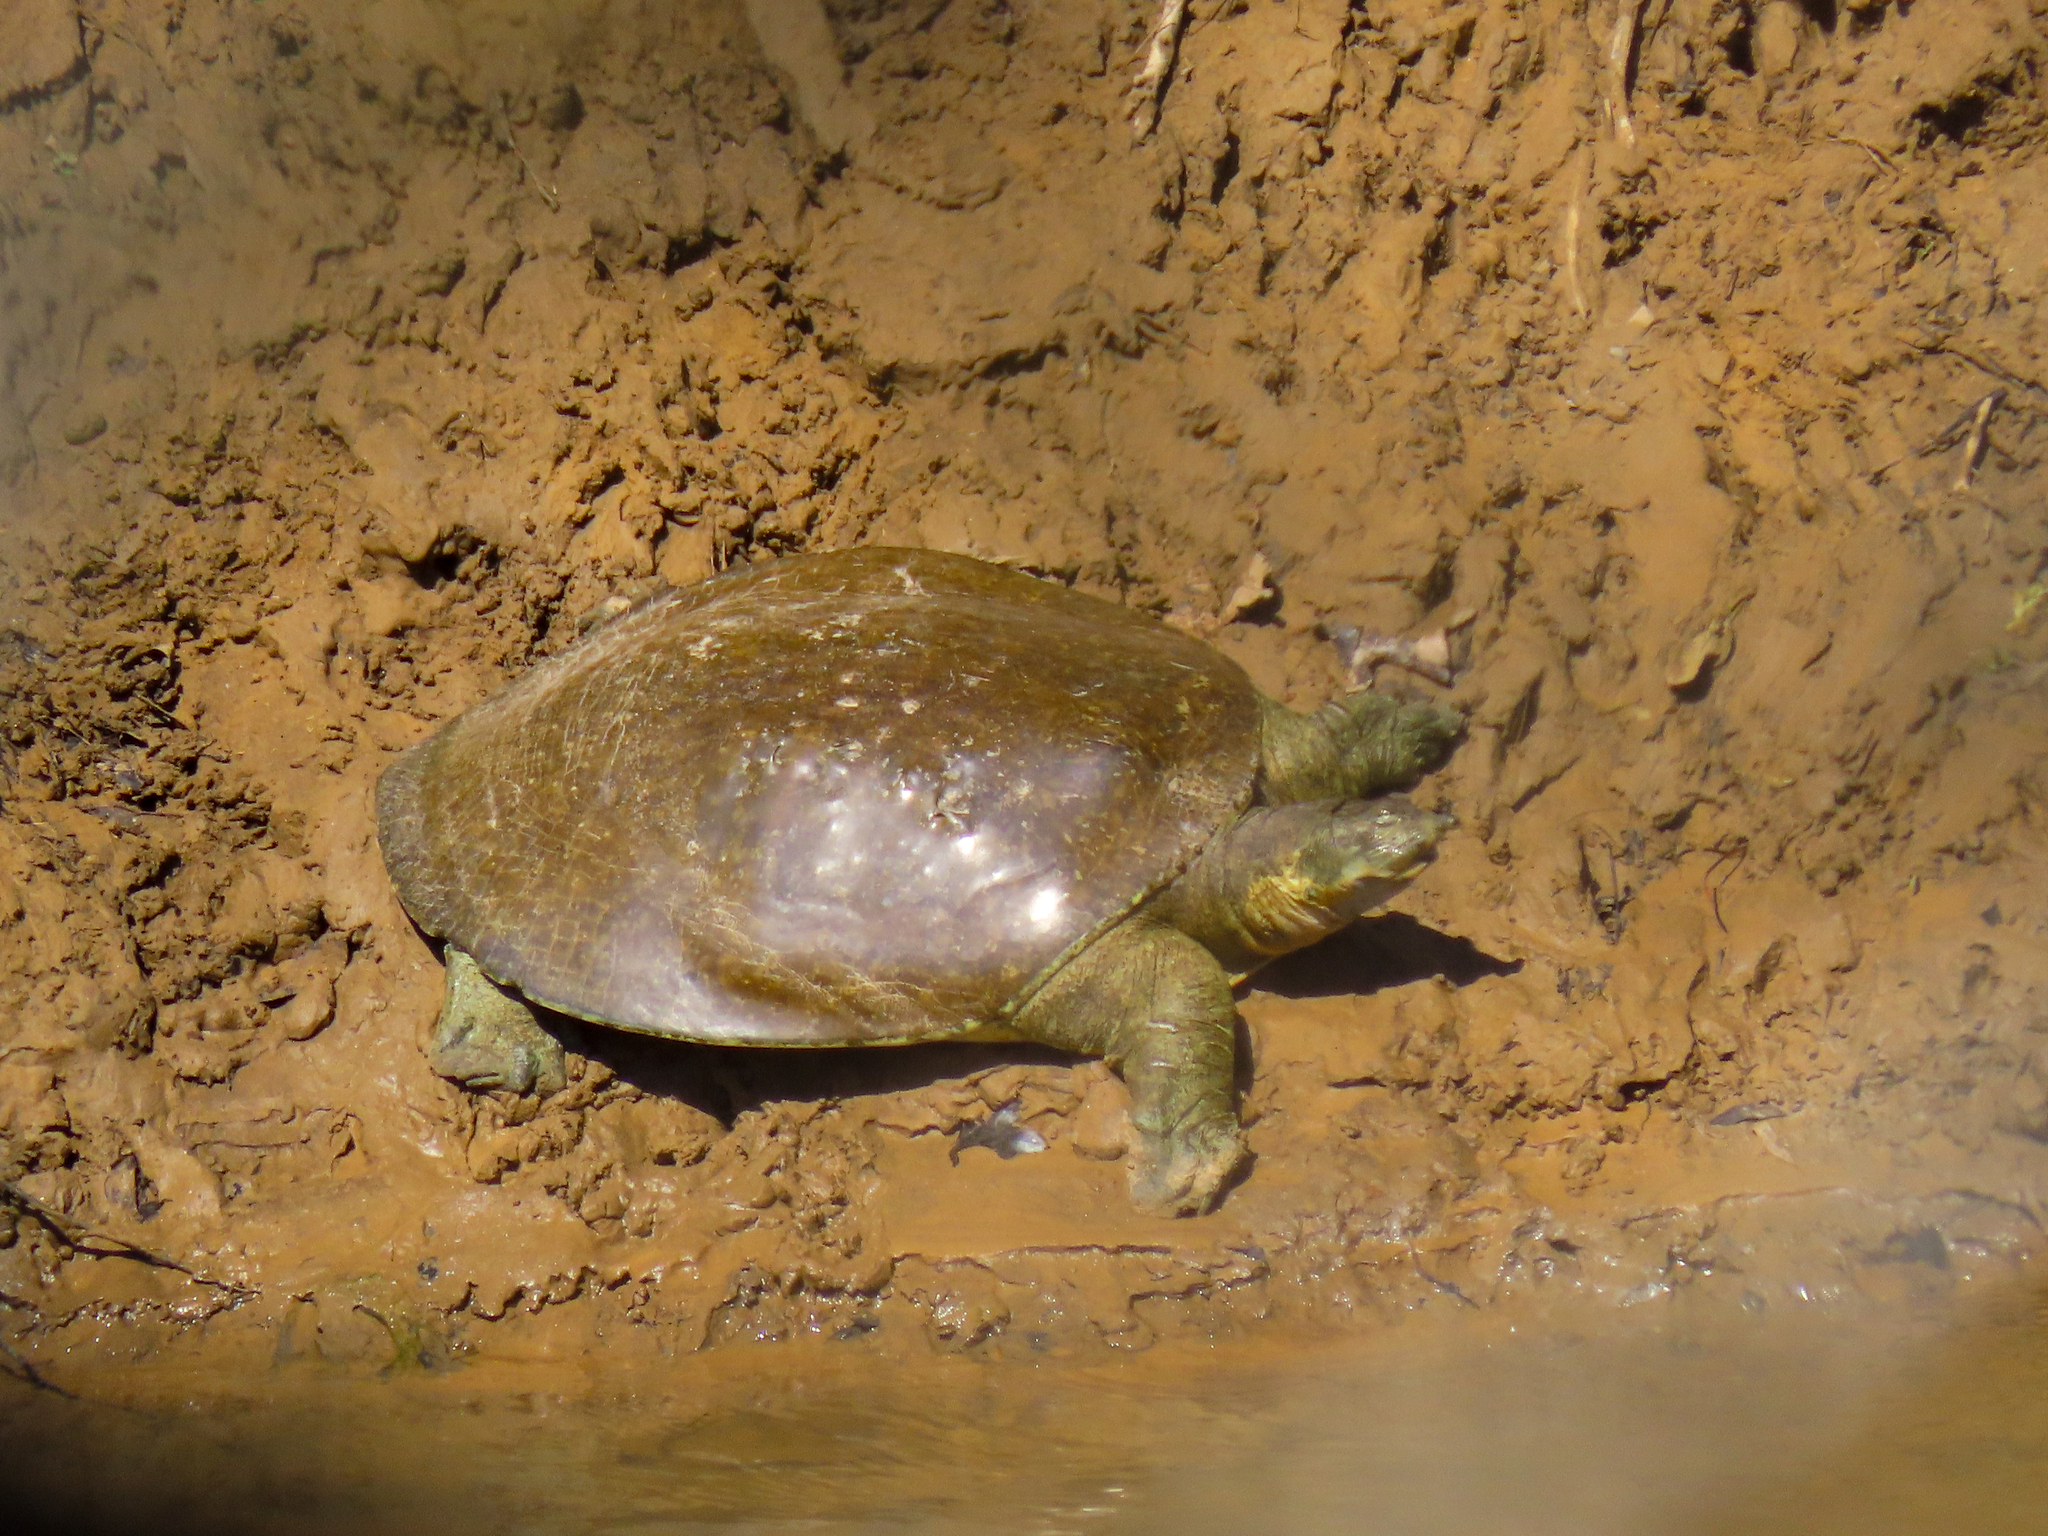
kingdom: Animalia
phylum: Chordata
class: Testudines
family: Trionychidae
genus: Apalone
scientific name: Apalone spinifera
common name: Spiny softshell turtle
